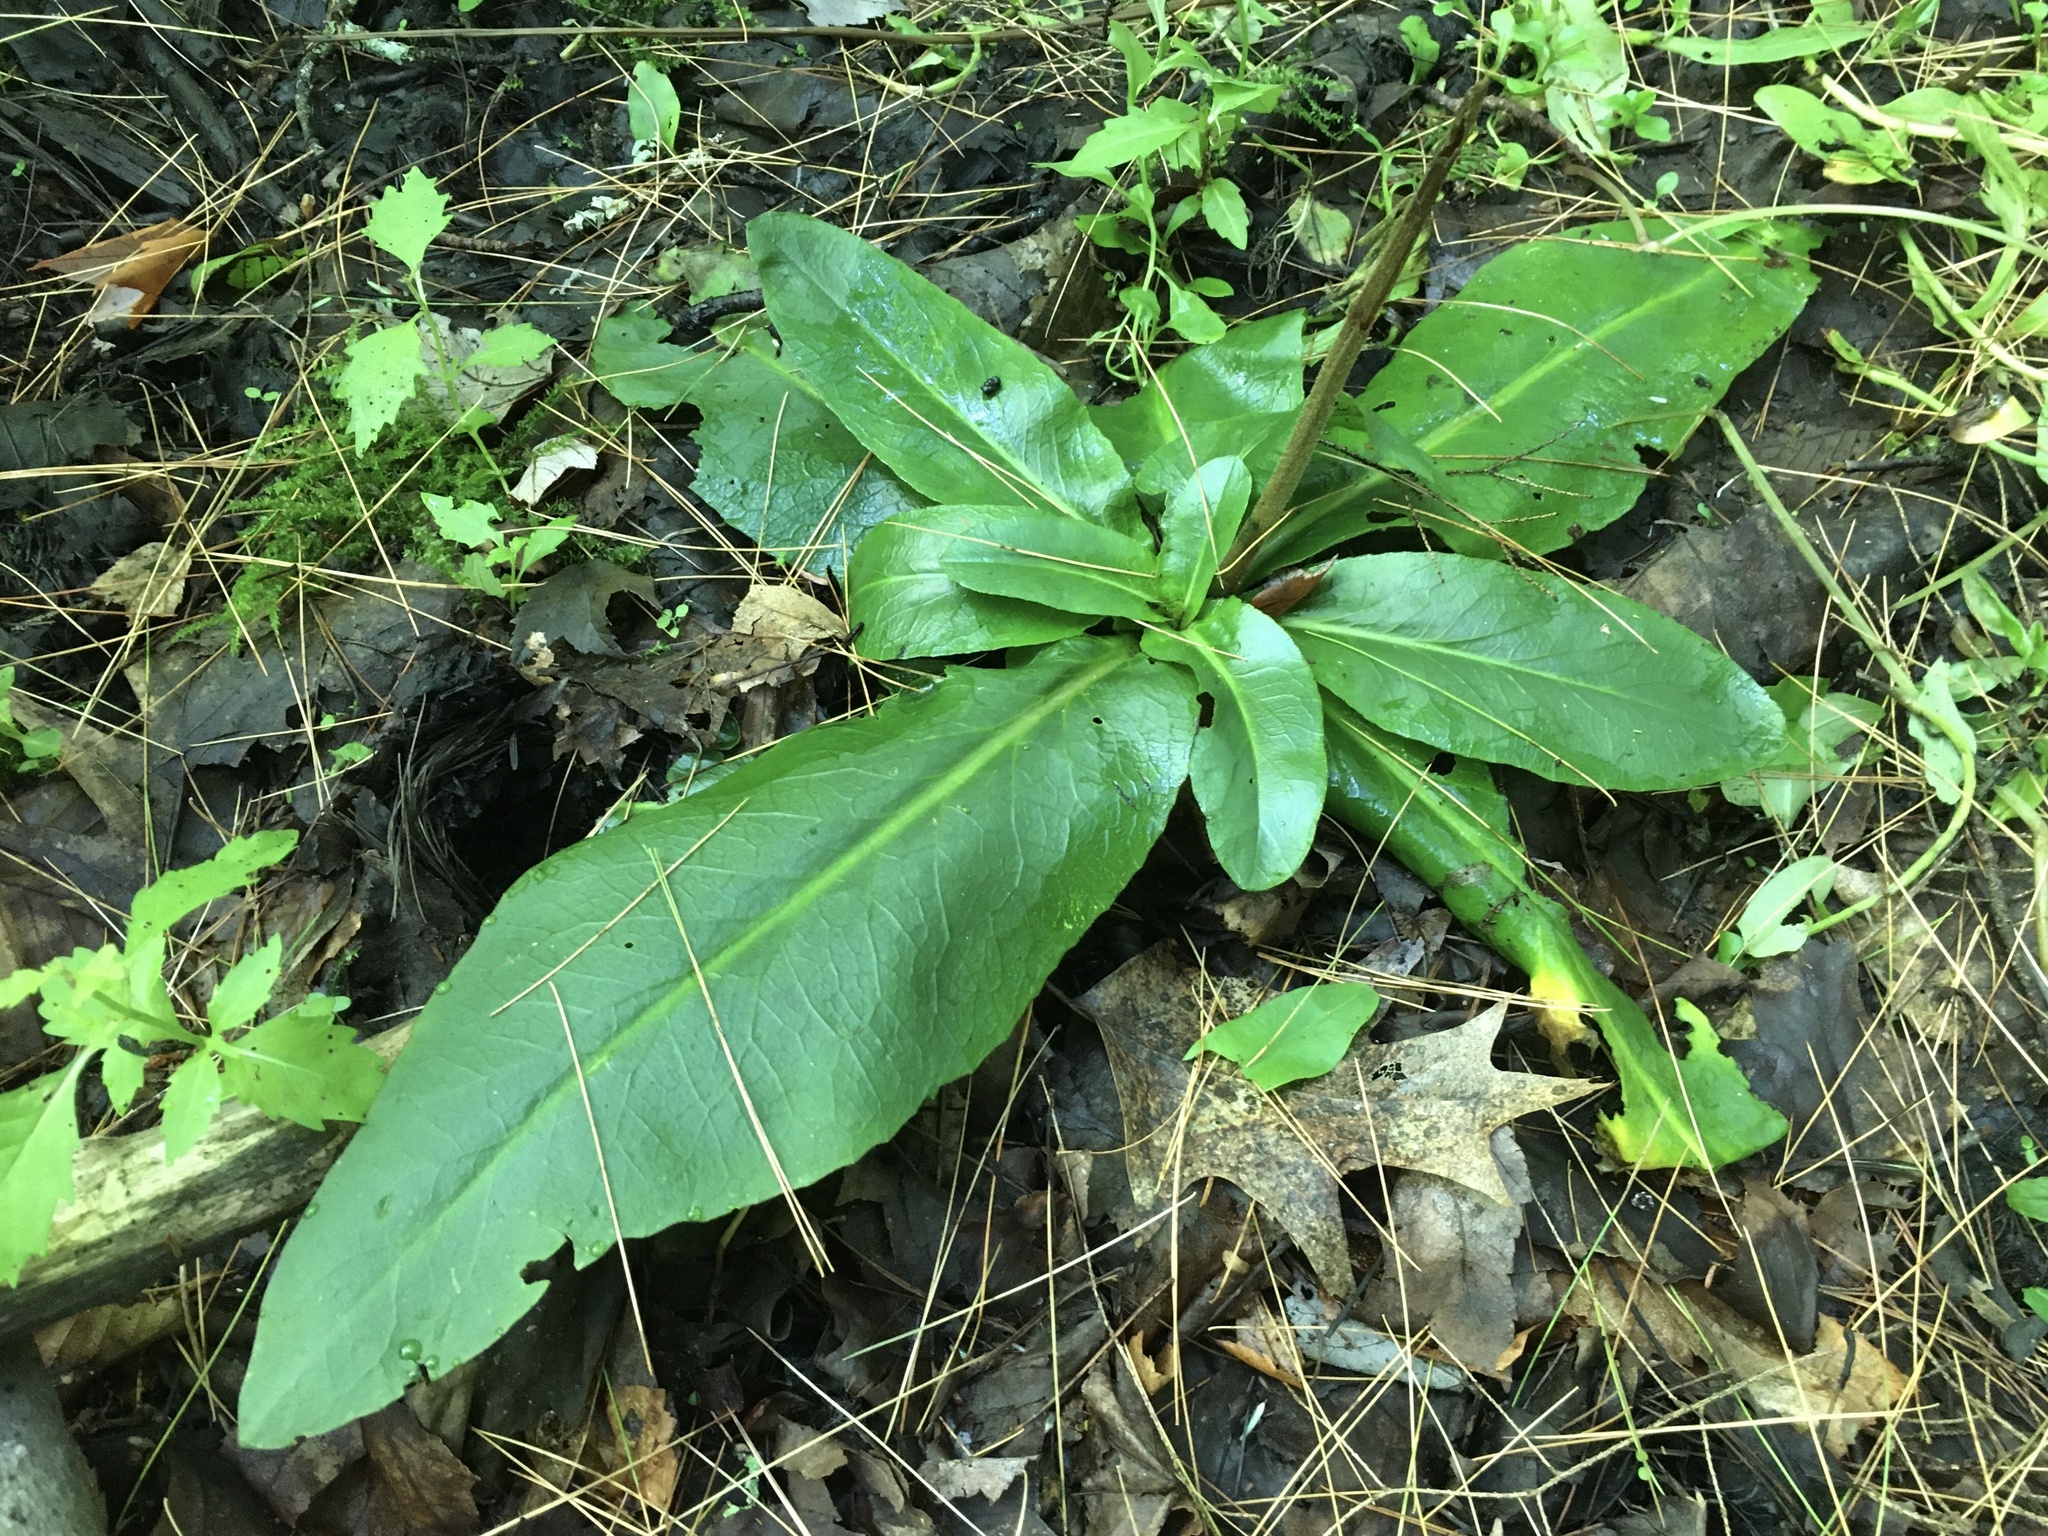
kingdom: Plantae
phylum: Tracheophyta
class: Magnoliopsida
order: Saxifragales
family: Saxifragaceae
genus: Micranthes
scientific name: Micranthes pensylvanica
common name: Marsh saxifrage
